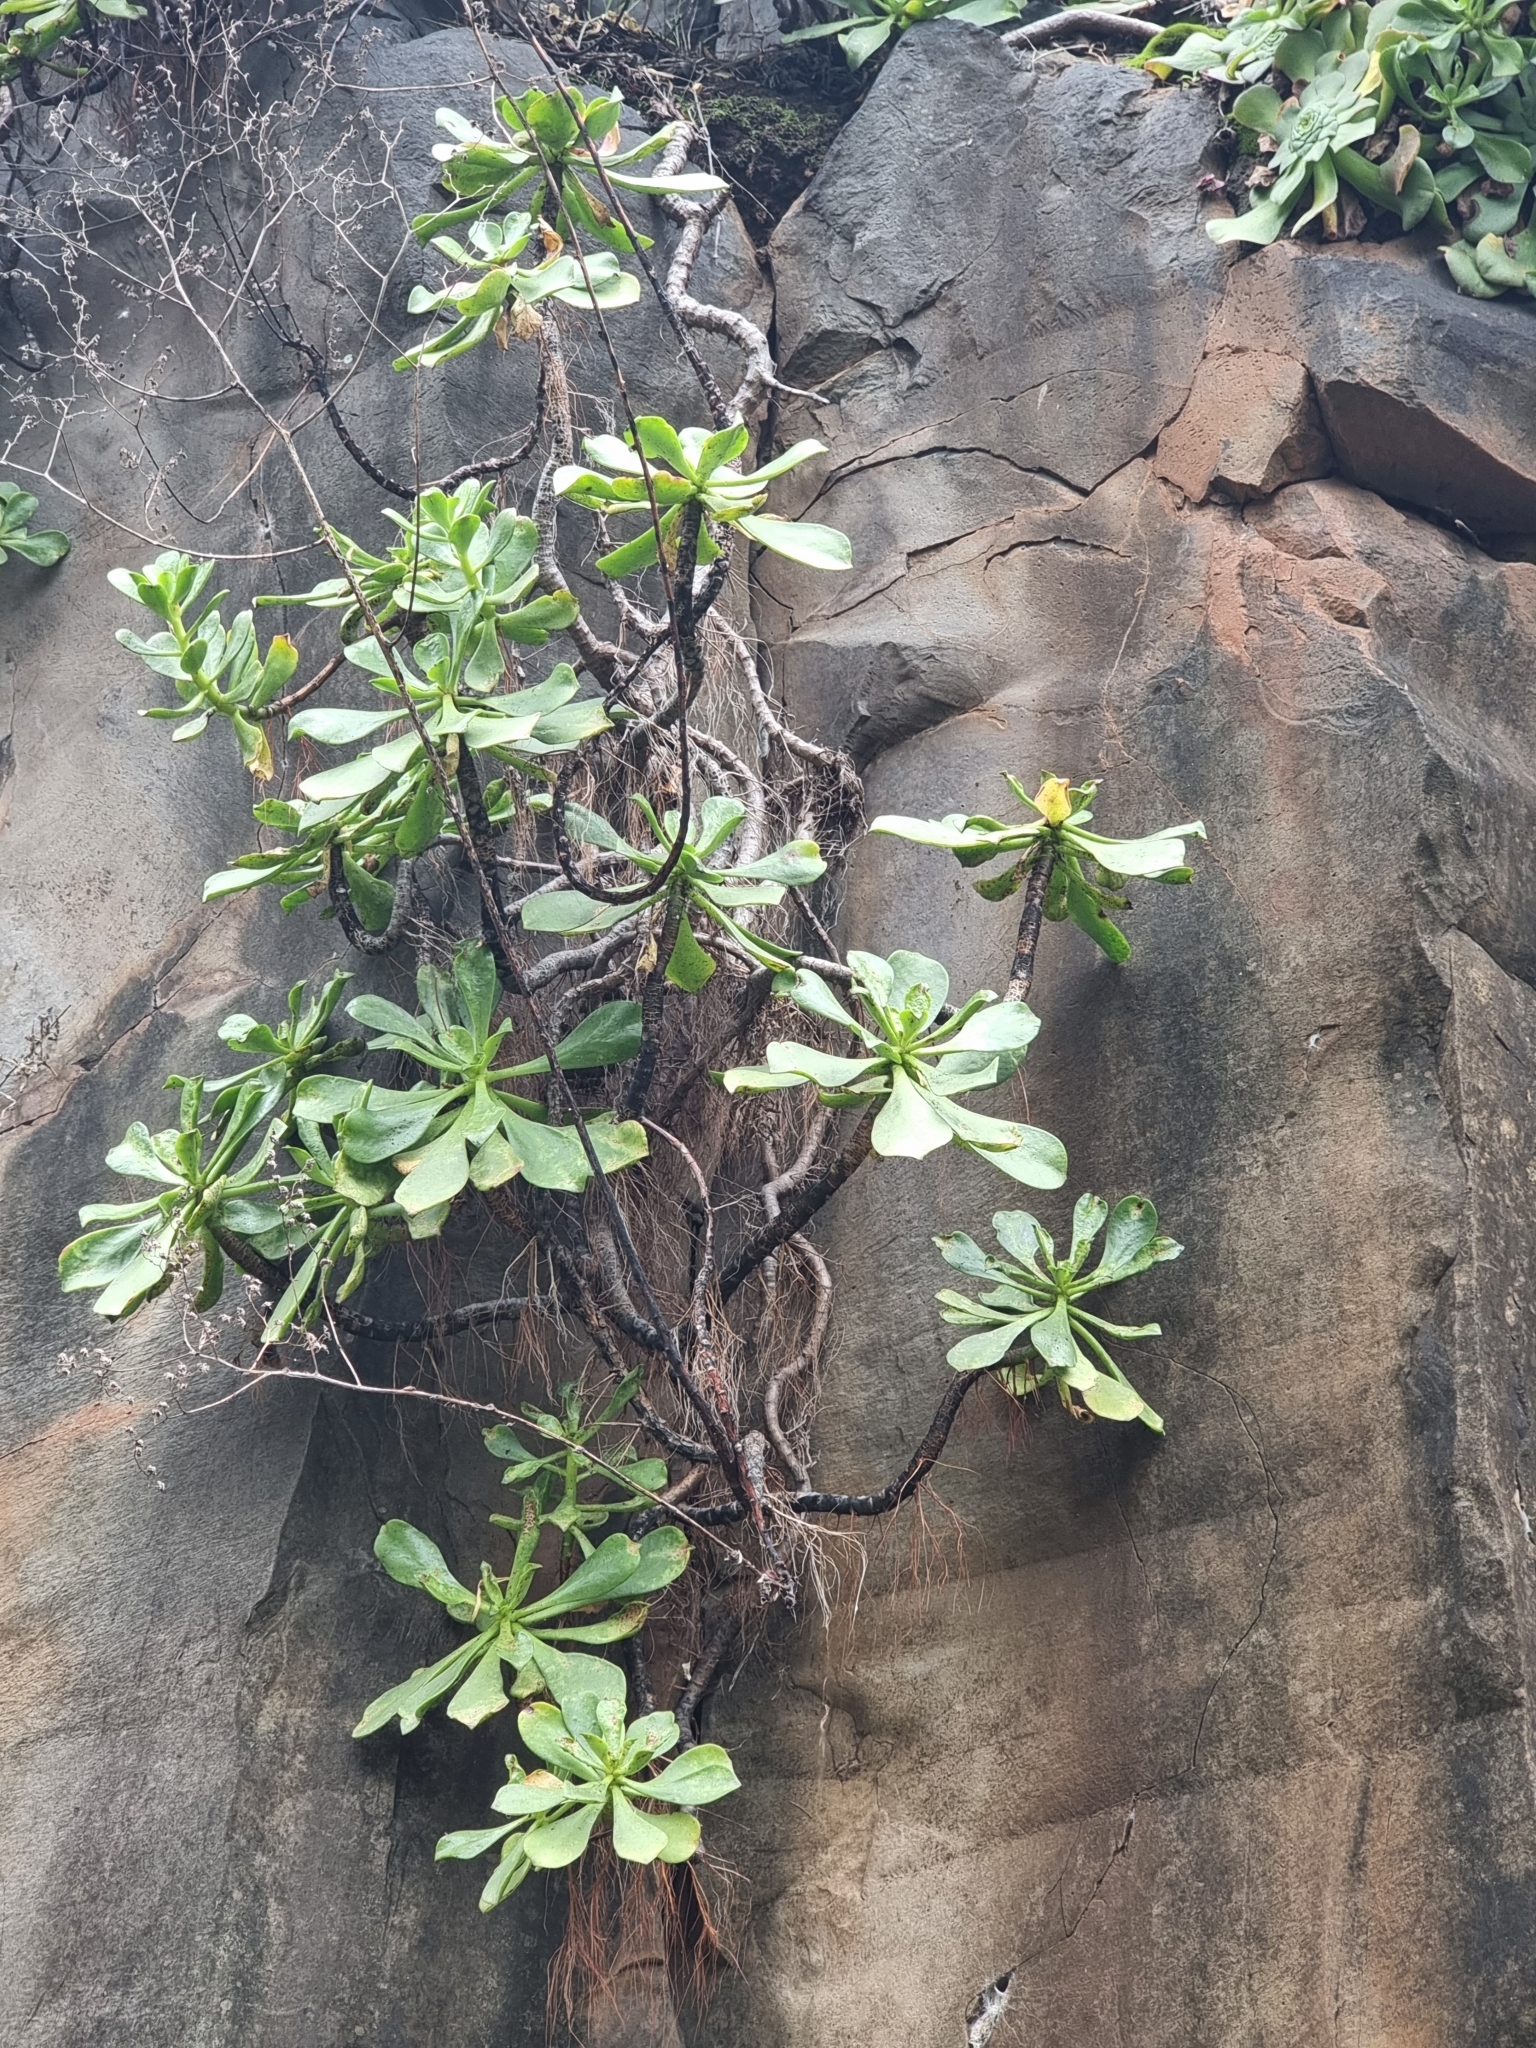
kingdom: Plantae
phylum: Tracheophyta
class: Magnoliopsida
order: Saxifragales
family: Crassulaceae
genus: Aeonium
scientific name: Aeonium glutinosum
